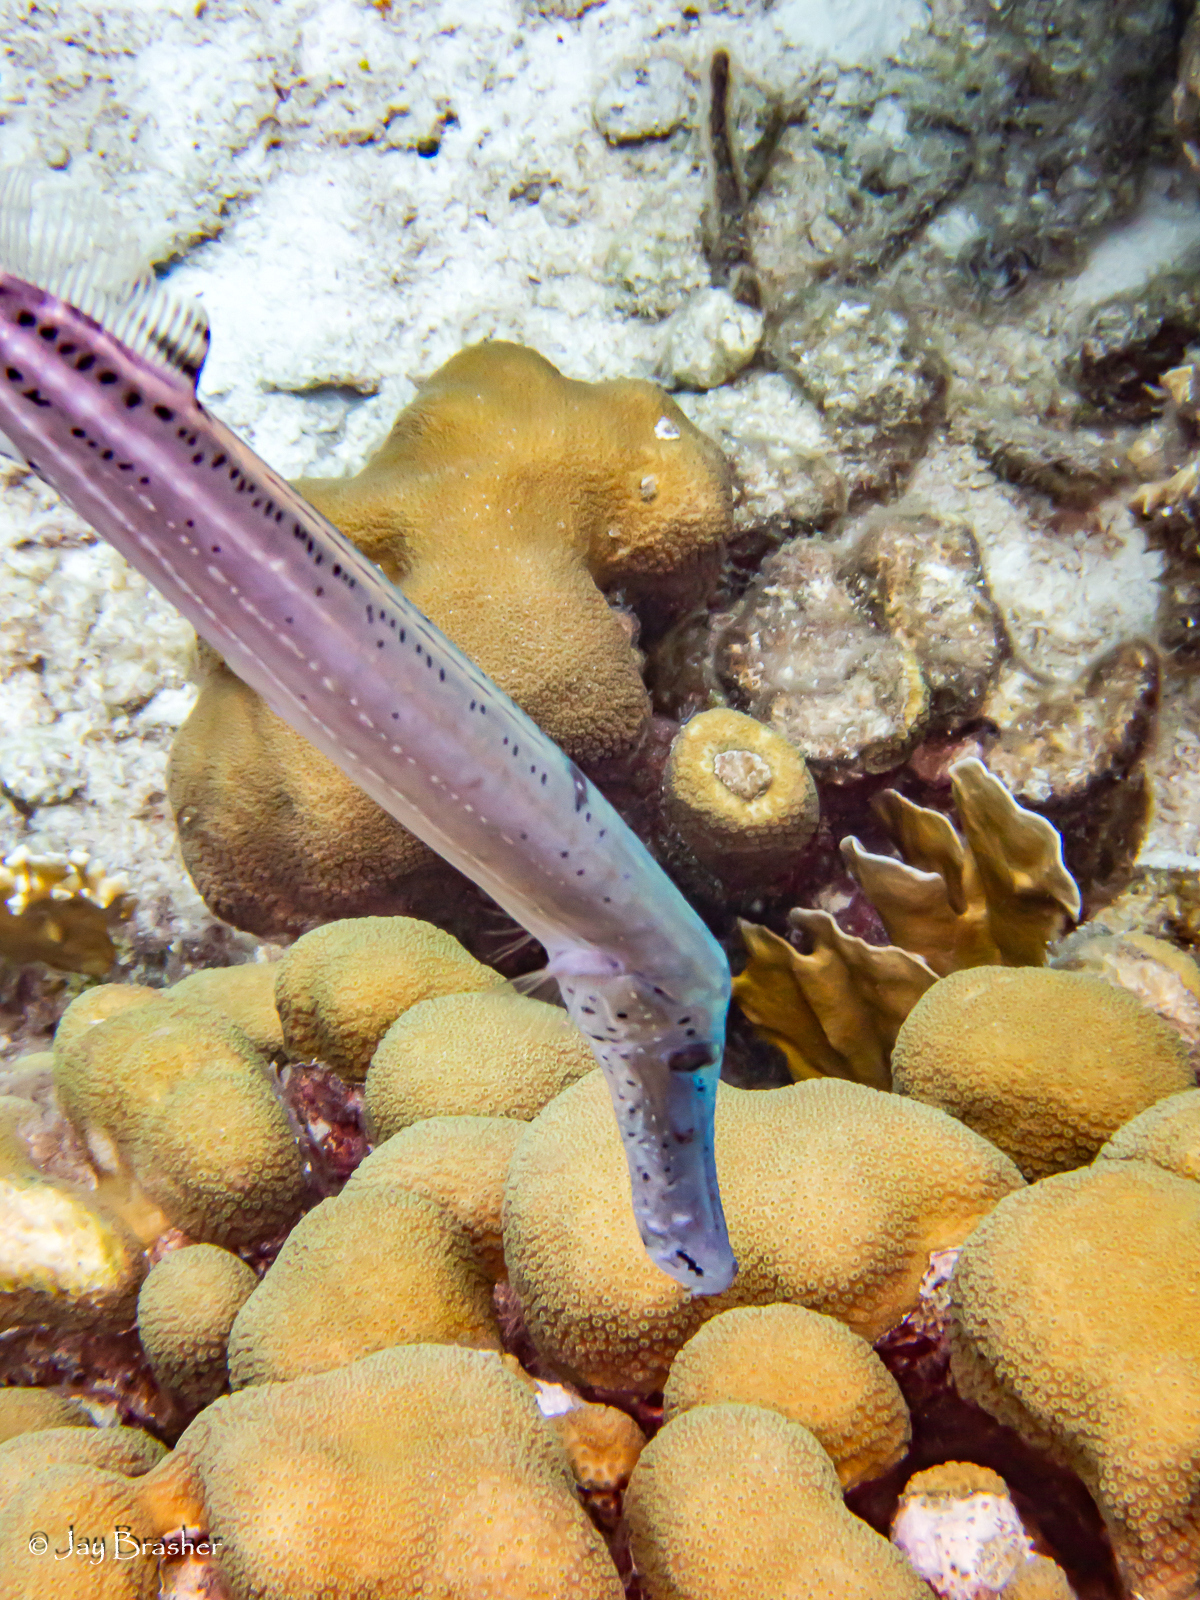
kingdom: Animalia
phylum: Cnidaria
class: Anthozoa
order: Scleractinia
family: Merulinidae
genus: Orbicella
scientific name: Orbicella annularis
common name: Boulder star coral
